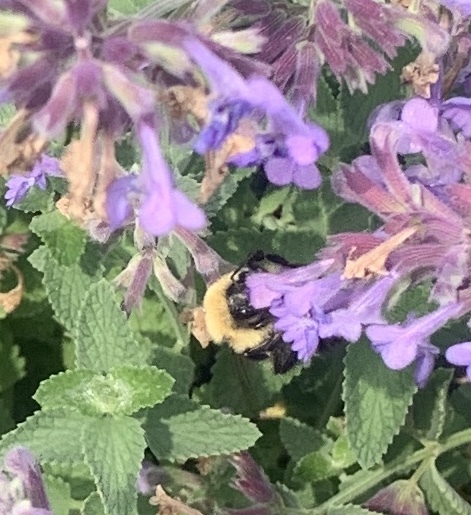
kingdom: Animalia
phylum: Arthropoda
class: Insecta
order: Hymenoptera
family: Apidae
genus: Bombus
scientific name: Bombus
